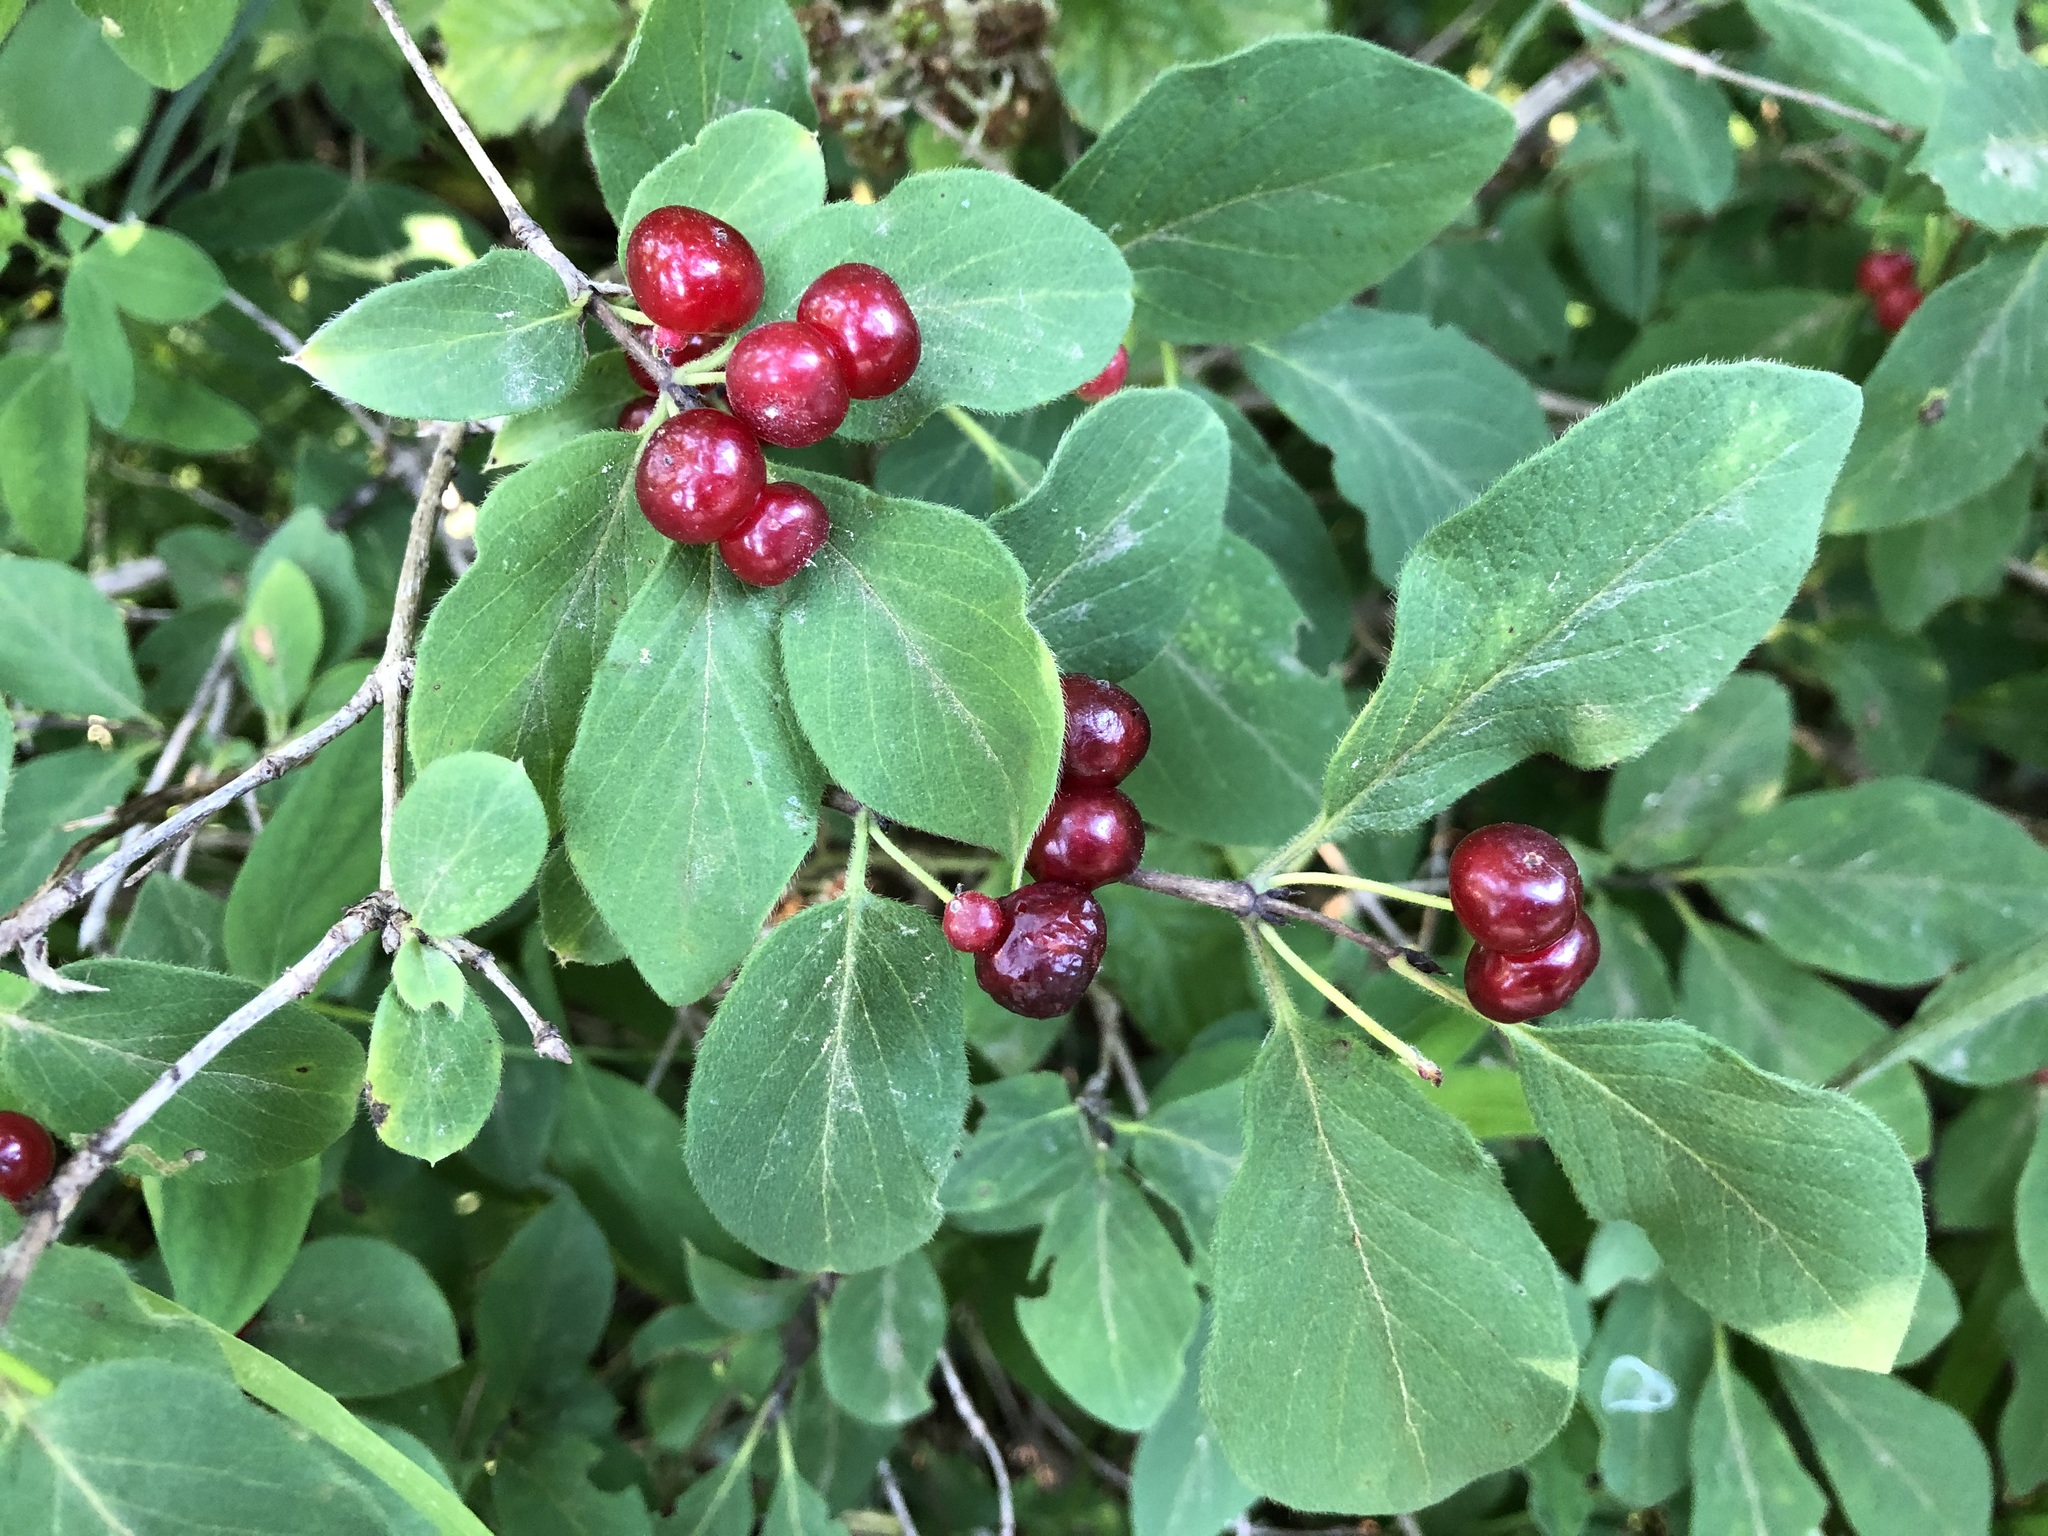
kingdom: Plantae
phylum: Tracheophyta
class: Magnoliopsida
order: Dipsacales
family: Caprifoliaceae
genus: Lonicera
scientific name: Lonicera xylosteum
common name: Fly honeysuckle
